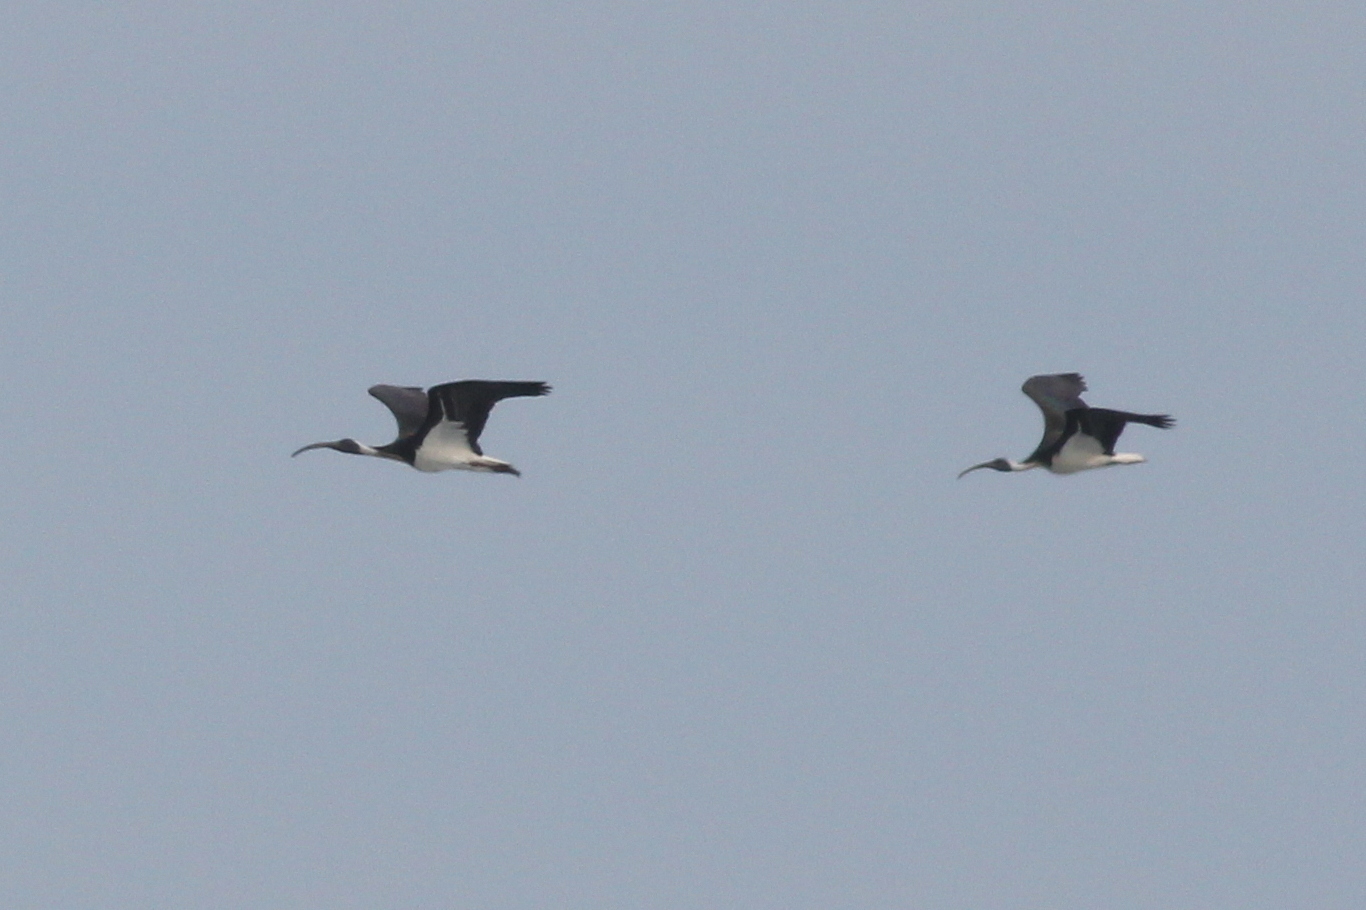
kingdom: Animalia
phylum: Chordata
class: Aves
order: Pelecaniformes
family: Threskiornithidae
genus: Threskiornis
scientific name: Threskiornis spinicollis
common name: Straw-necked ibis
